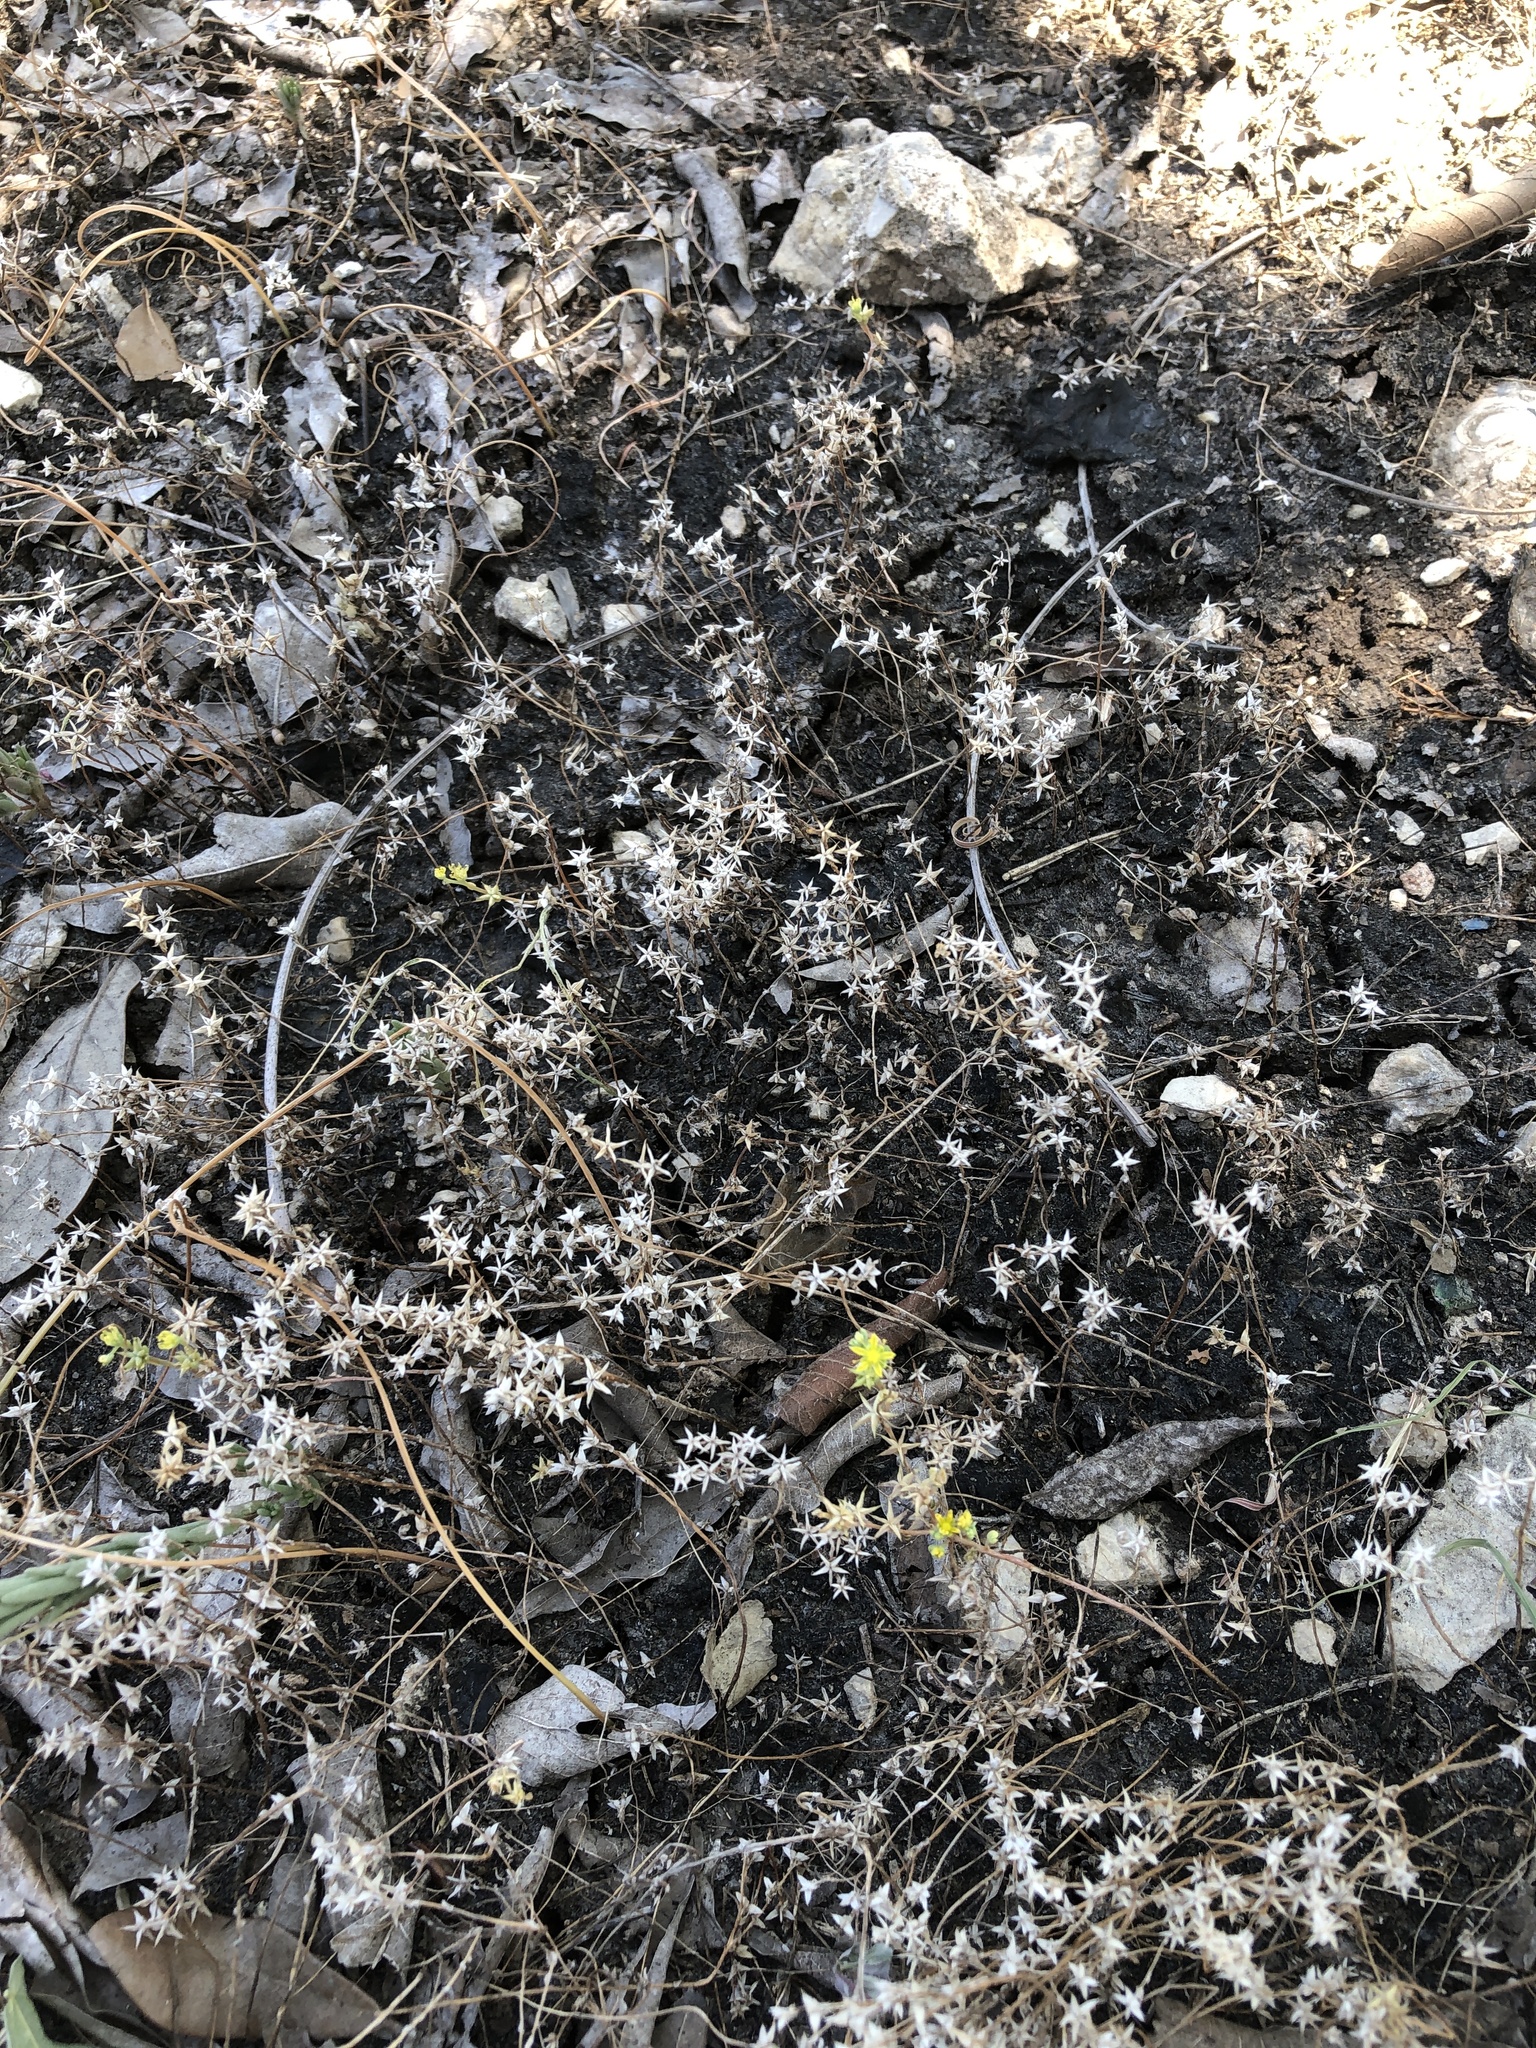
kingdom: Plantae
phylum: Tracheophyta
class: Magnoliopsida
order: Saxifragales
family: Crassulaceae
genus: Sedum
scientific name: Sedum nuttallii
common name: Yellow stonecrop
